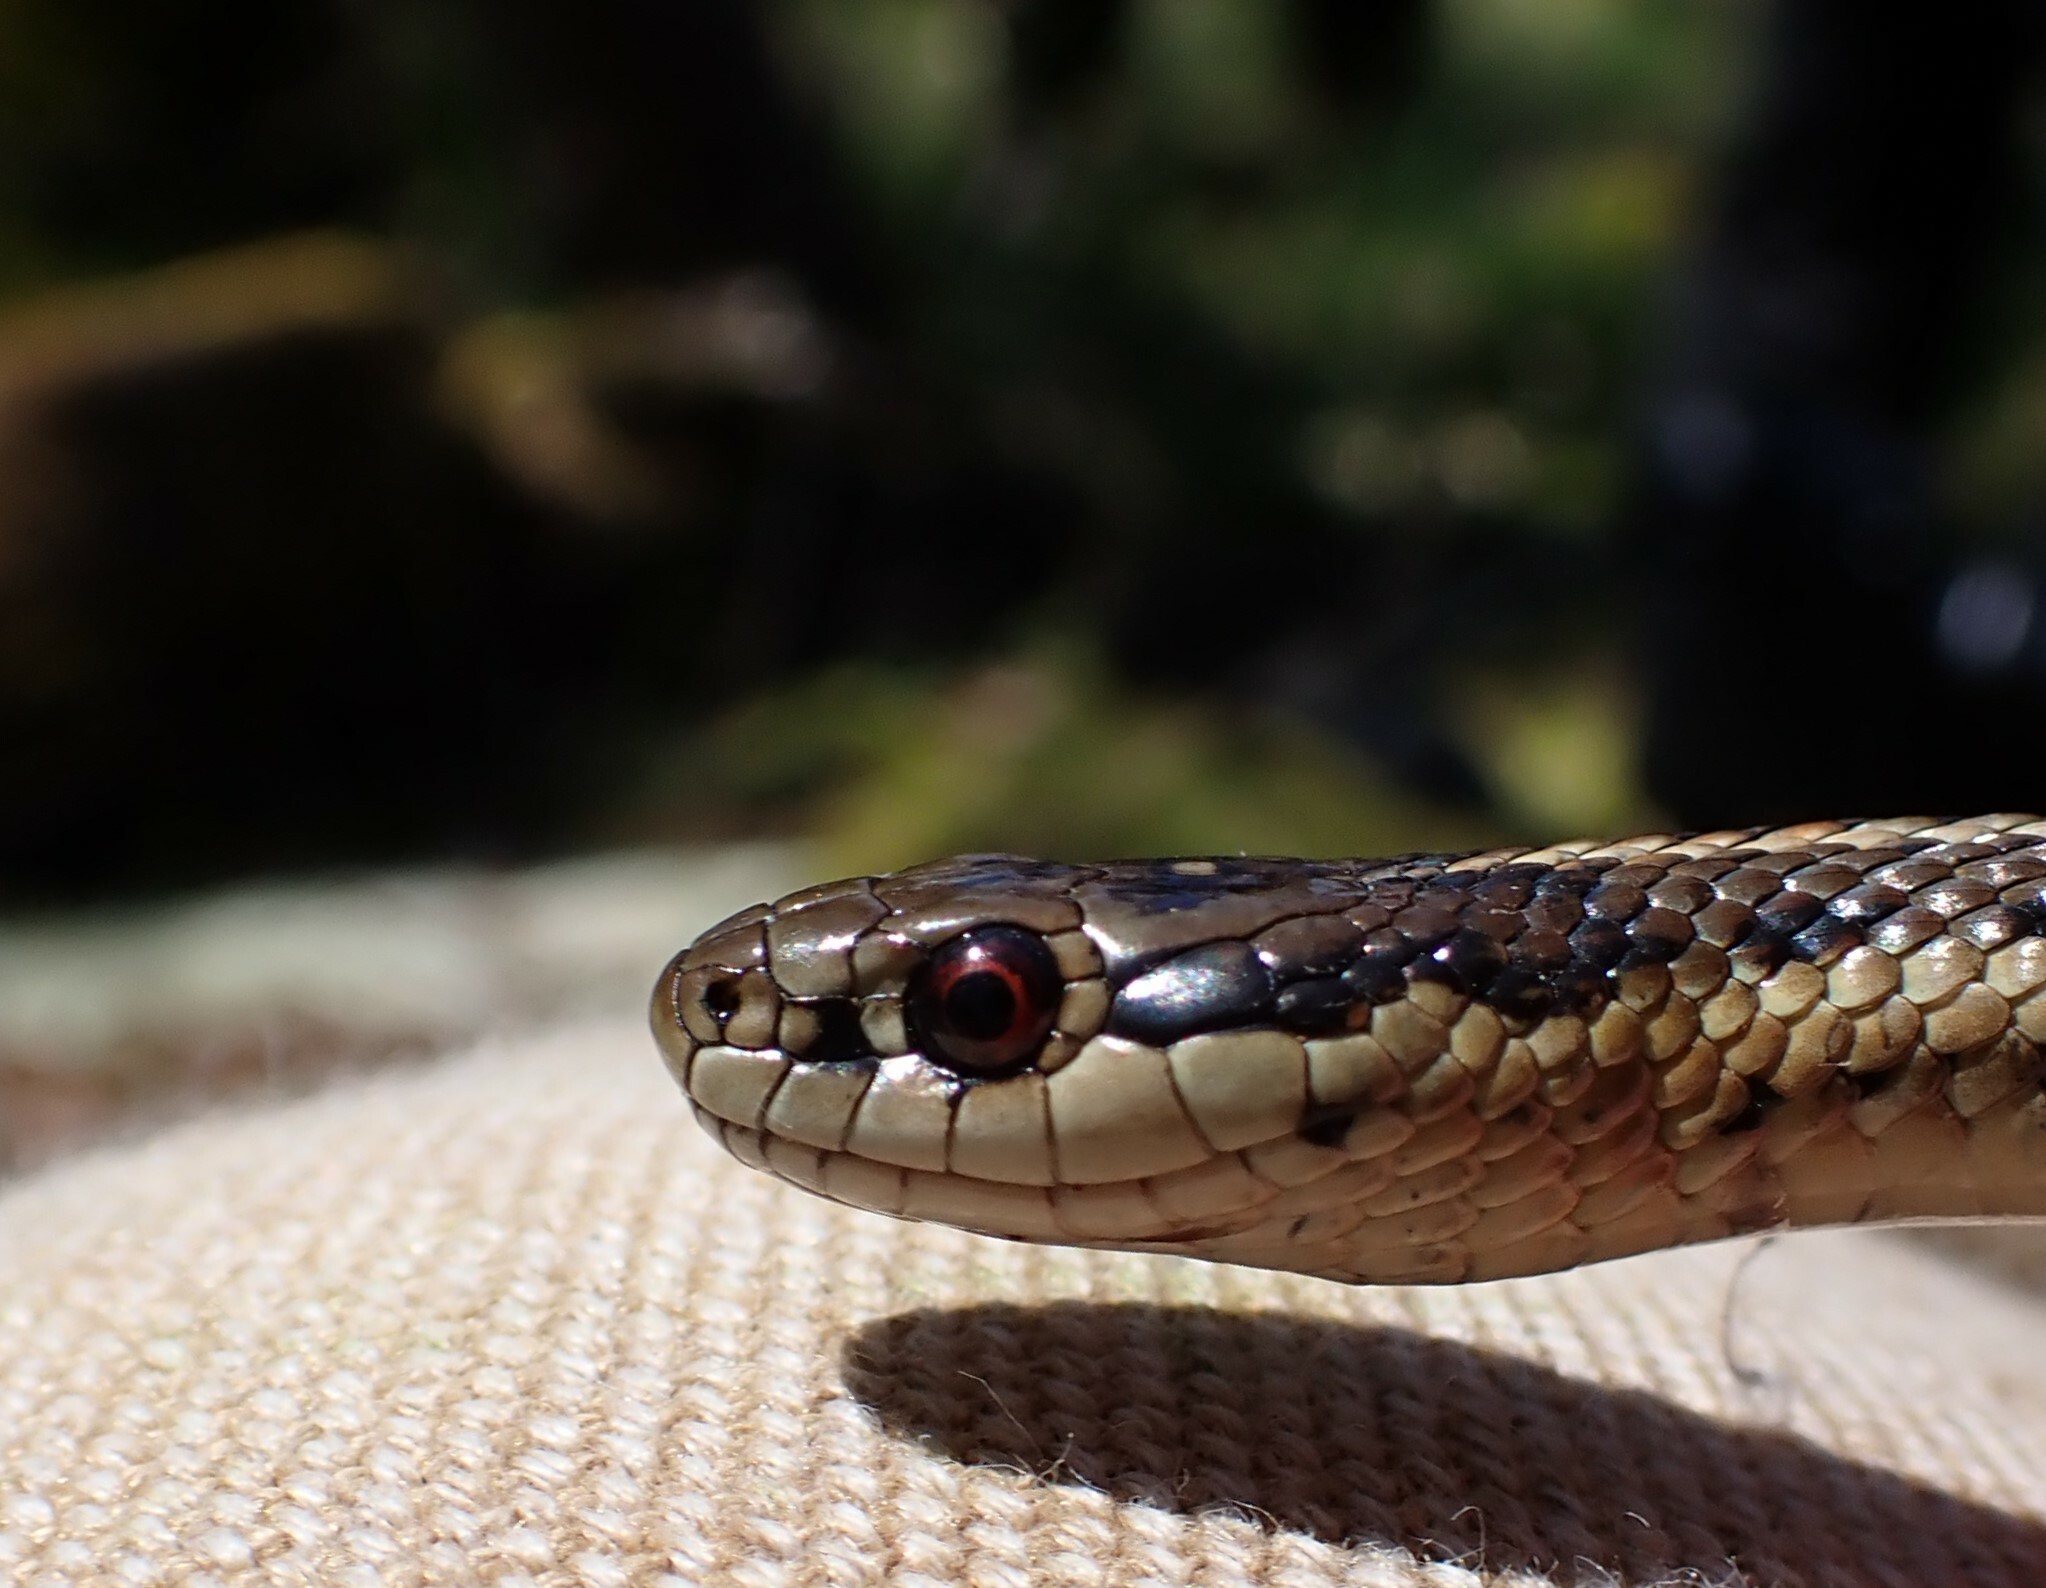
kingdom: Animalia
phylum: Chordata
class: Squamata
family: Colubridae
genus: Thamnophis
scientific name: Thamnophis ordinoides
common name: Northwestern garter snake
